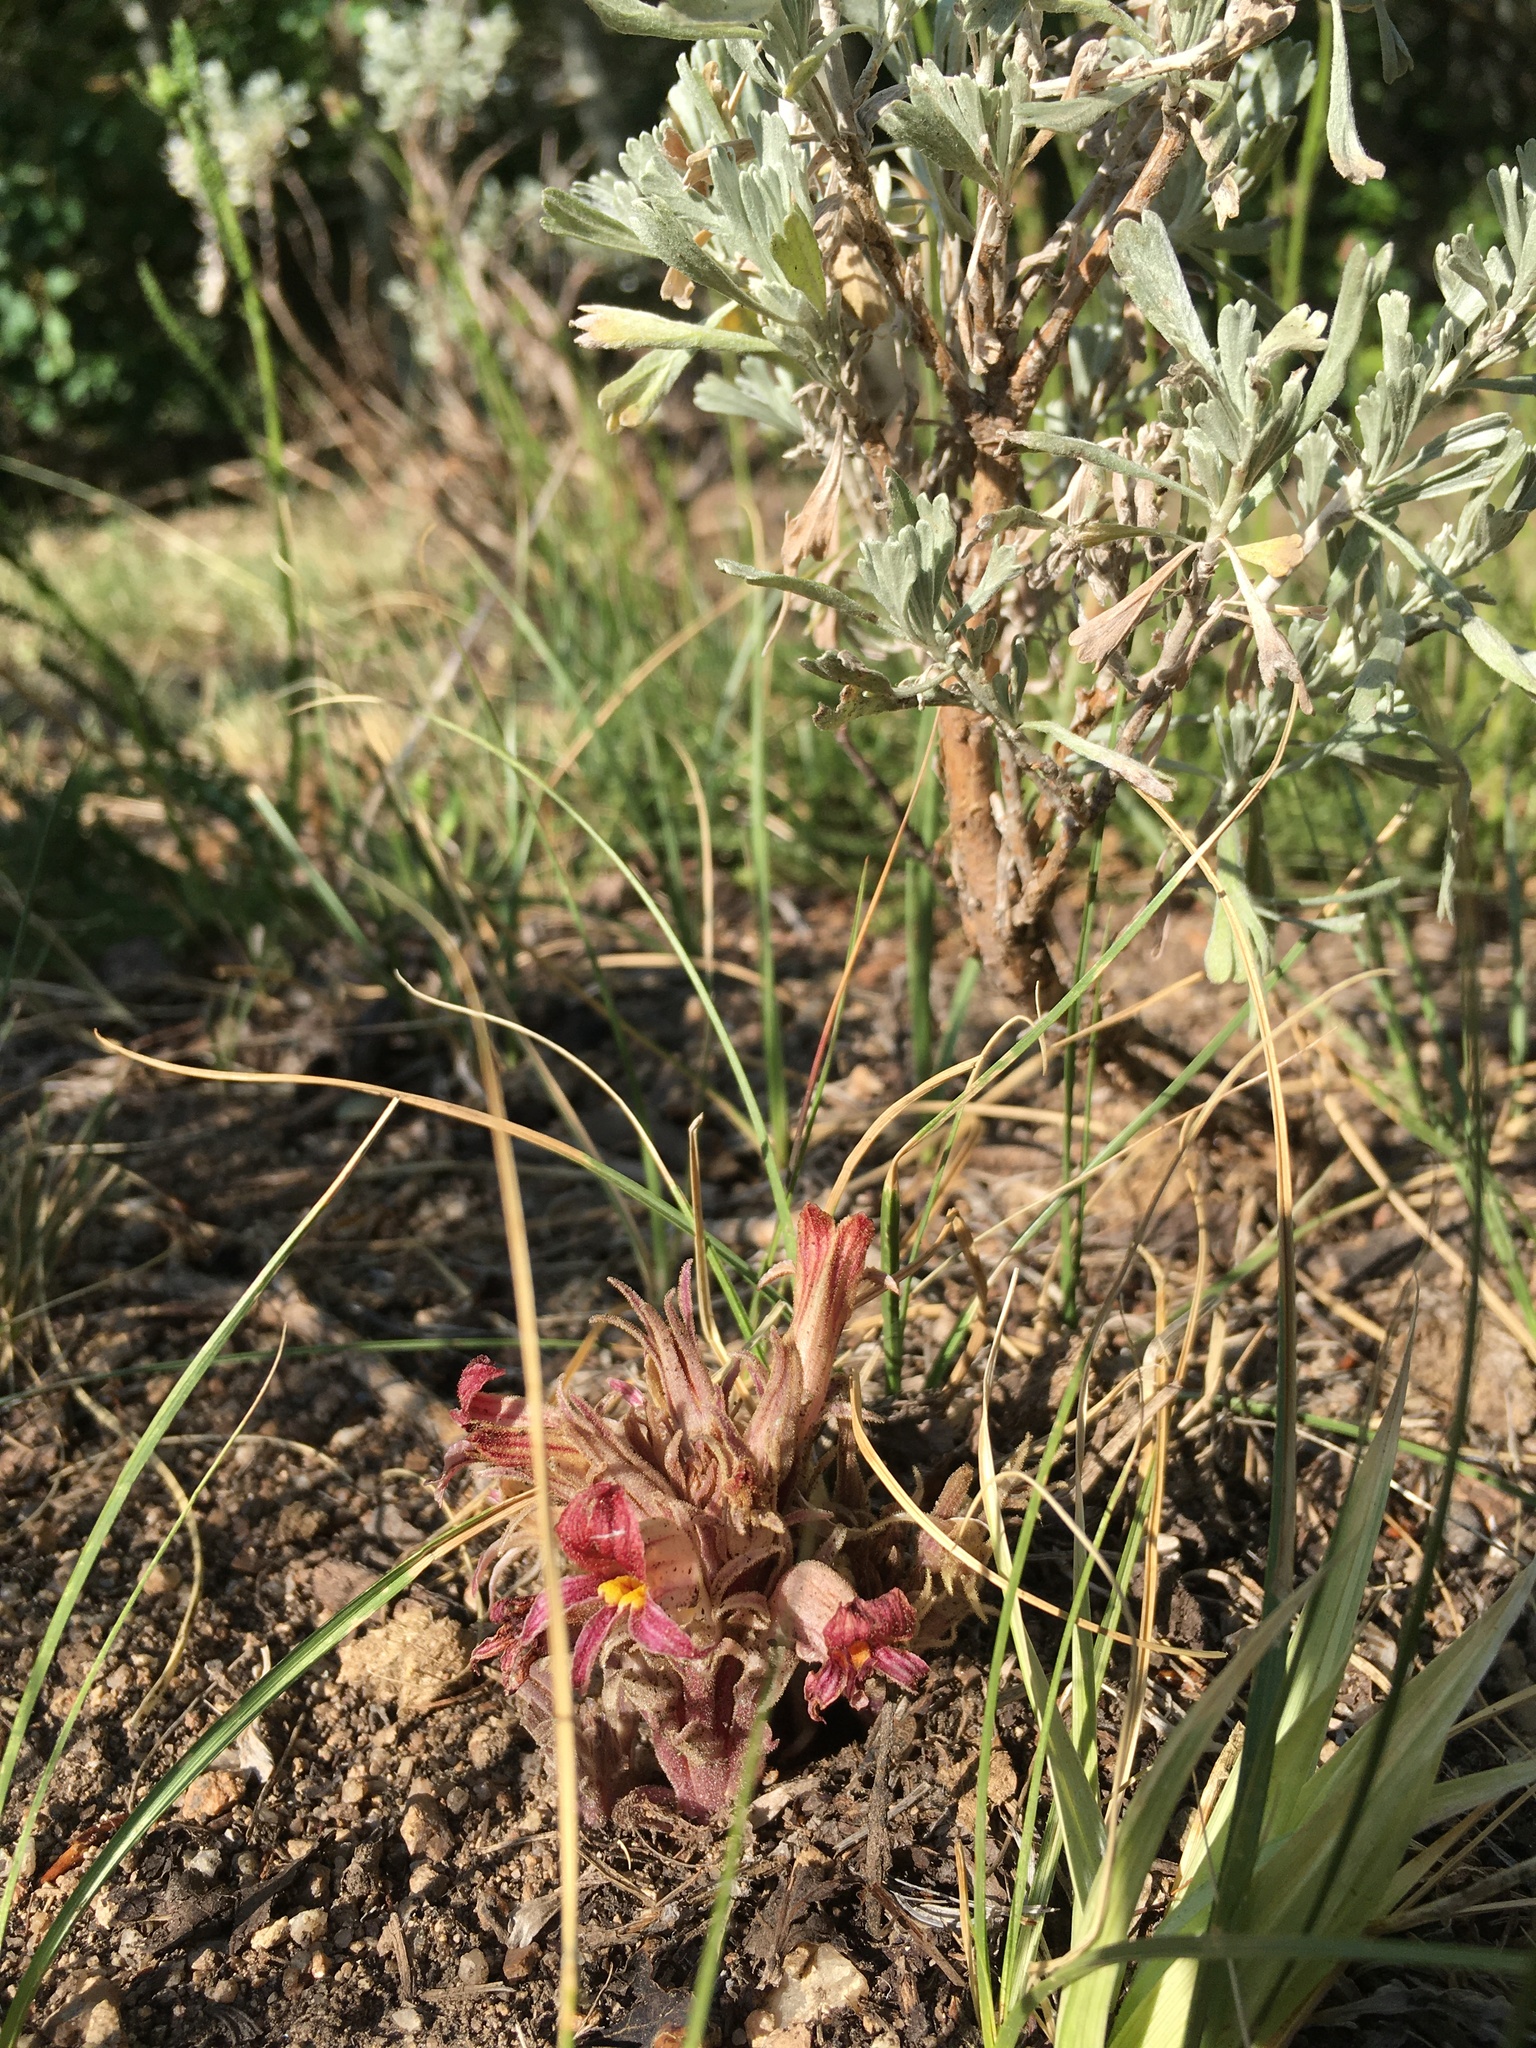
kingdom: Plantae
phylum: Tracheophyta
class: Magnoliopsida
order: Lamiales
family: Orobanchaceae
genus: Aphyllon
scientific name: Aphyllon corymbosum
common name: Flat-top broomrape
